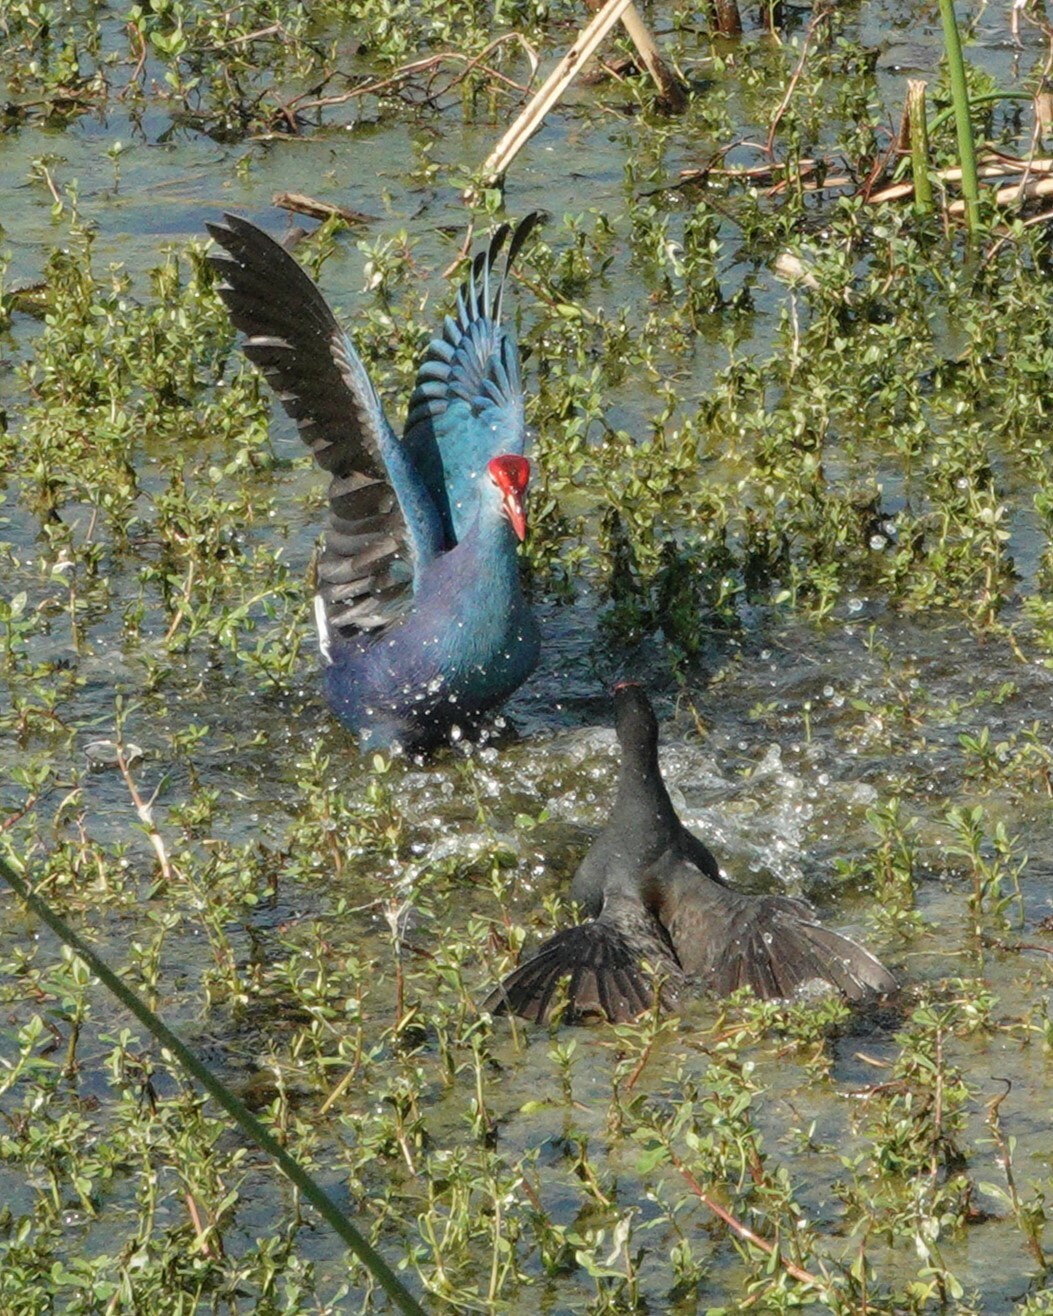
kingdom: Animalia
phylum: Chordata
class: Aves
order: Gruiformes
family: Rallidae
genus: Porphyrio
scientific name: Porphyrio porphyrio
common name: Purple swamphen
